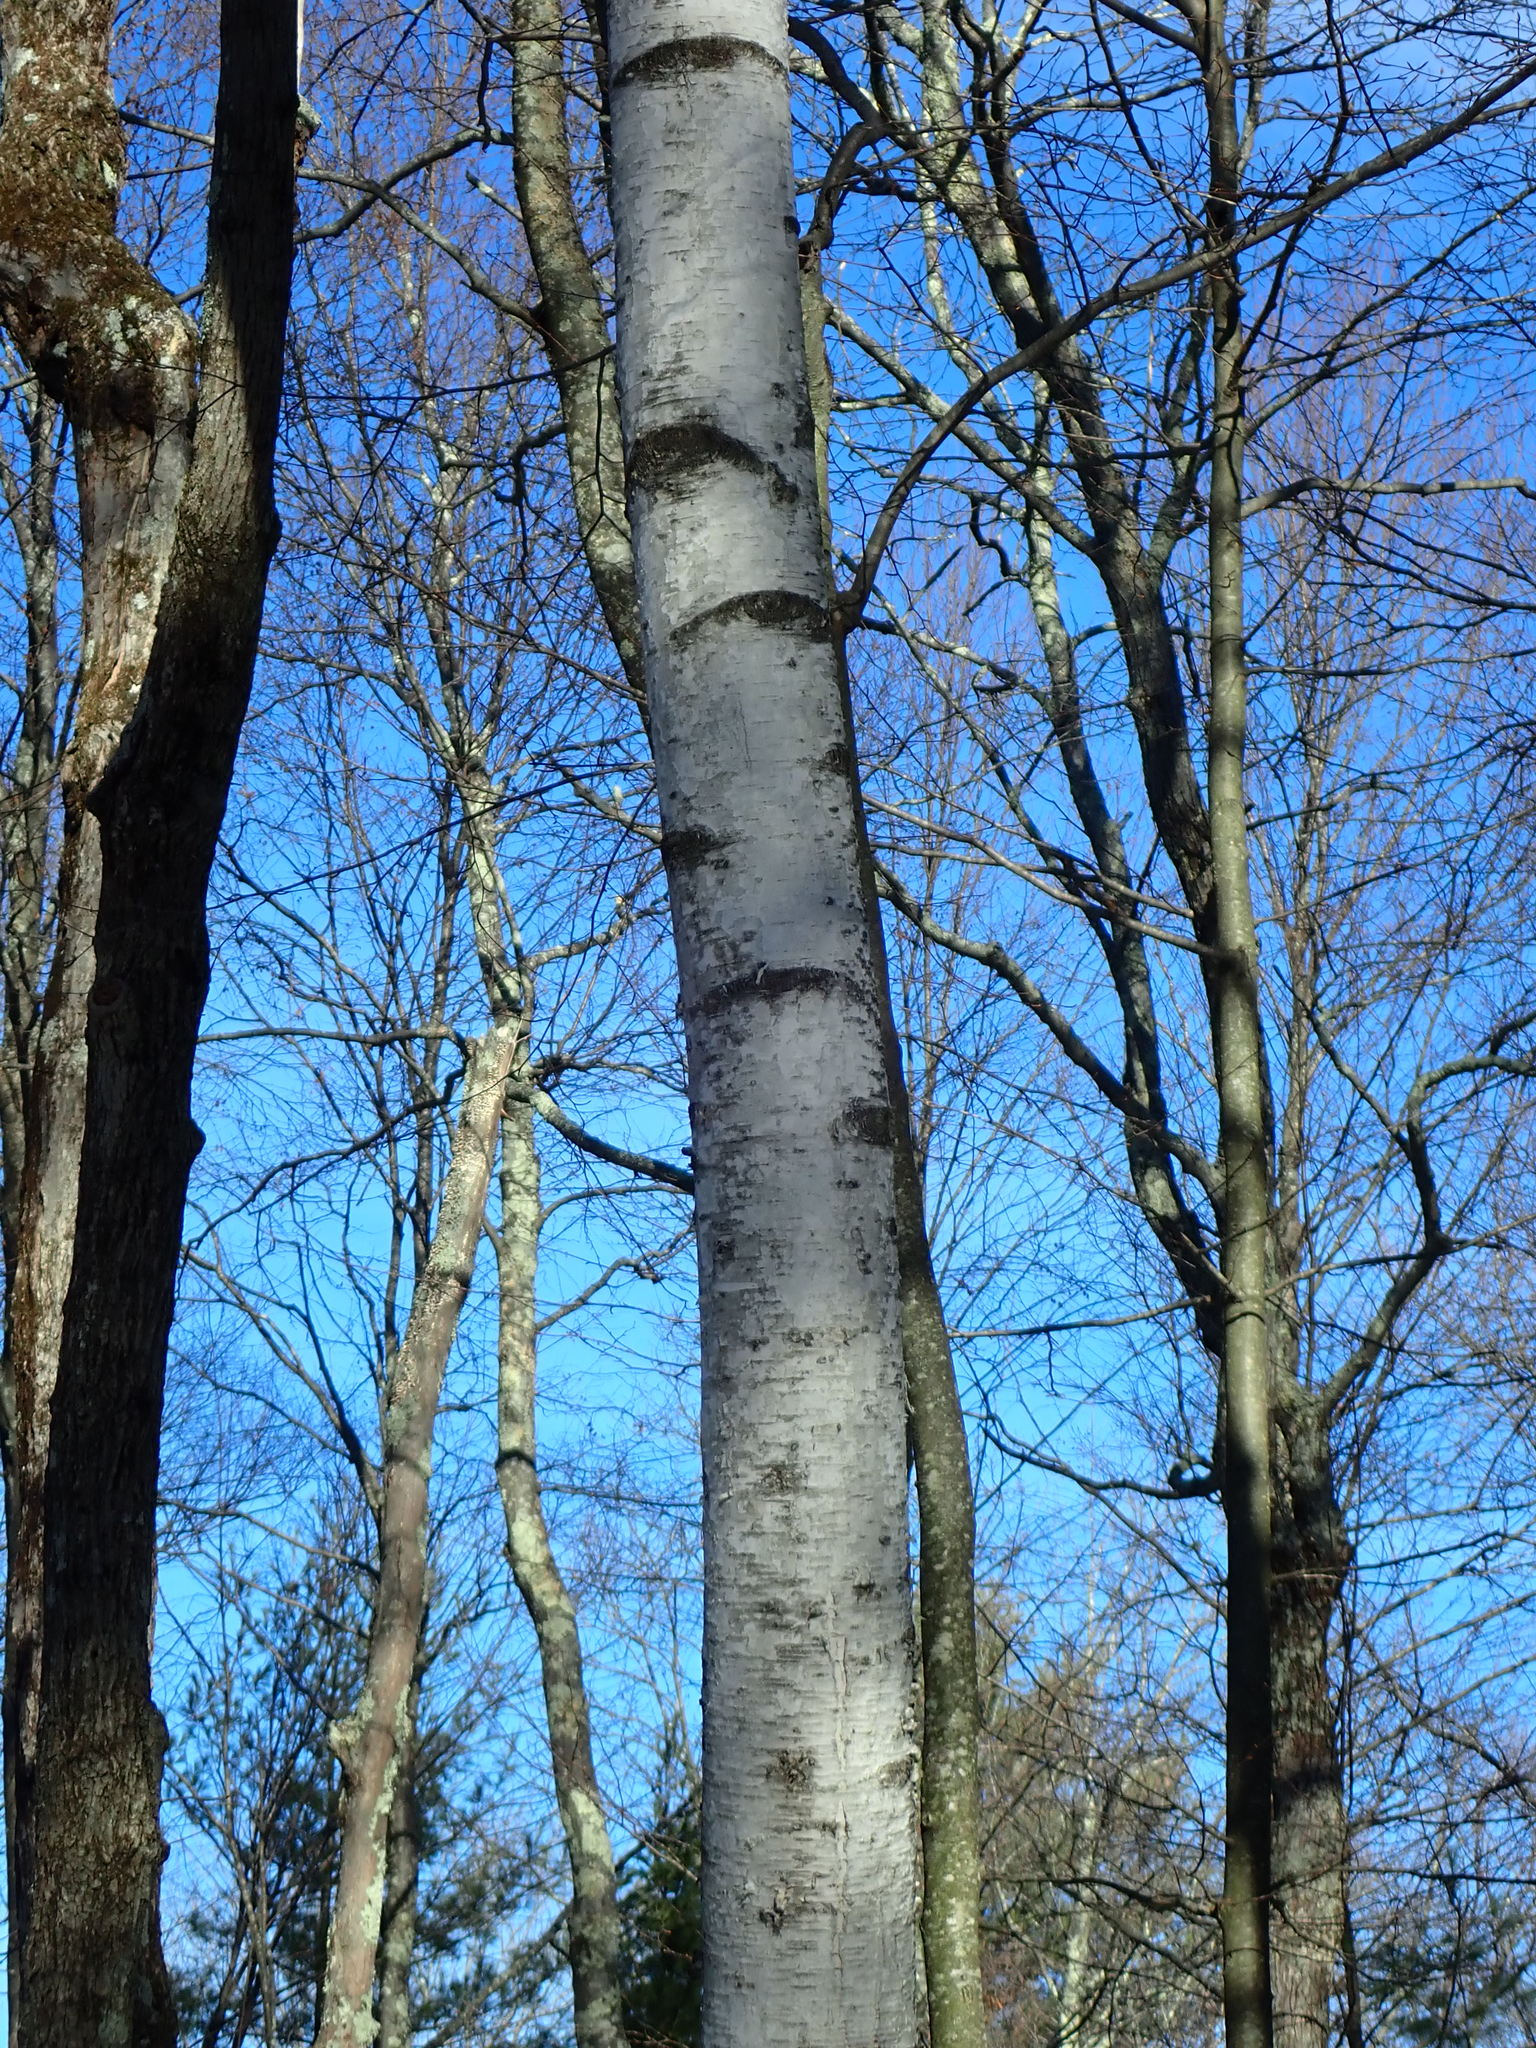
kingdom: Plantae
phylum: Tracheophyta
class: Magnoliopsida
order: Fagales
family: Betulaceae
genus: Betula
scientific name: Betula papyrifera
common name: Paper birch
